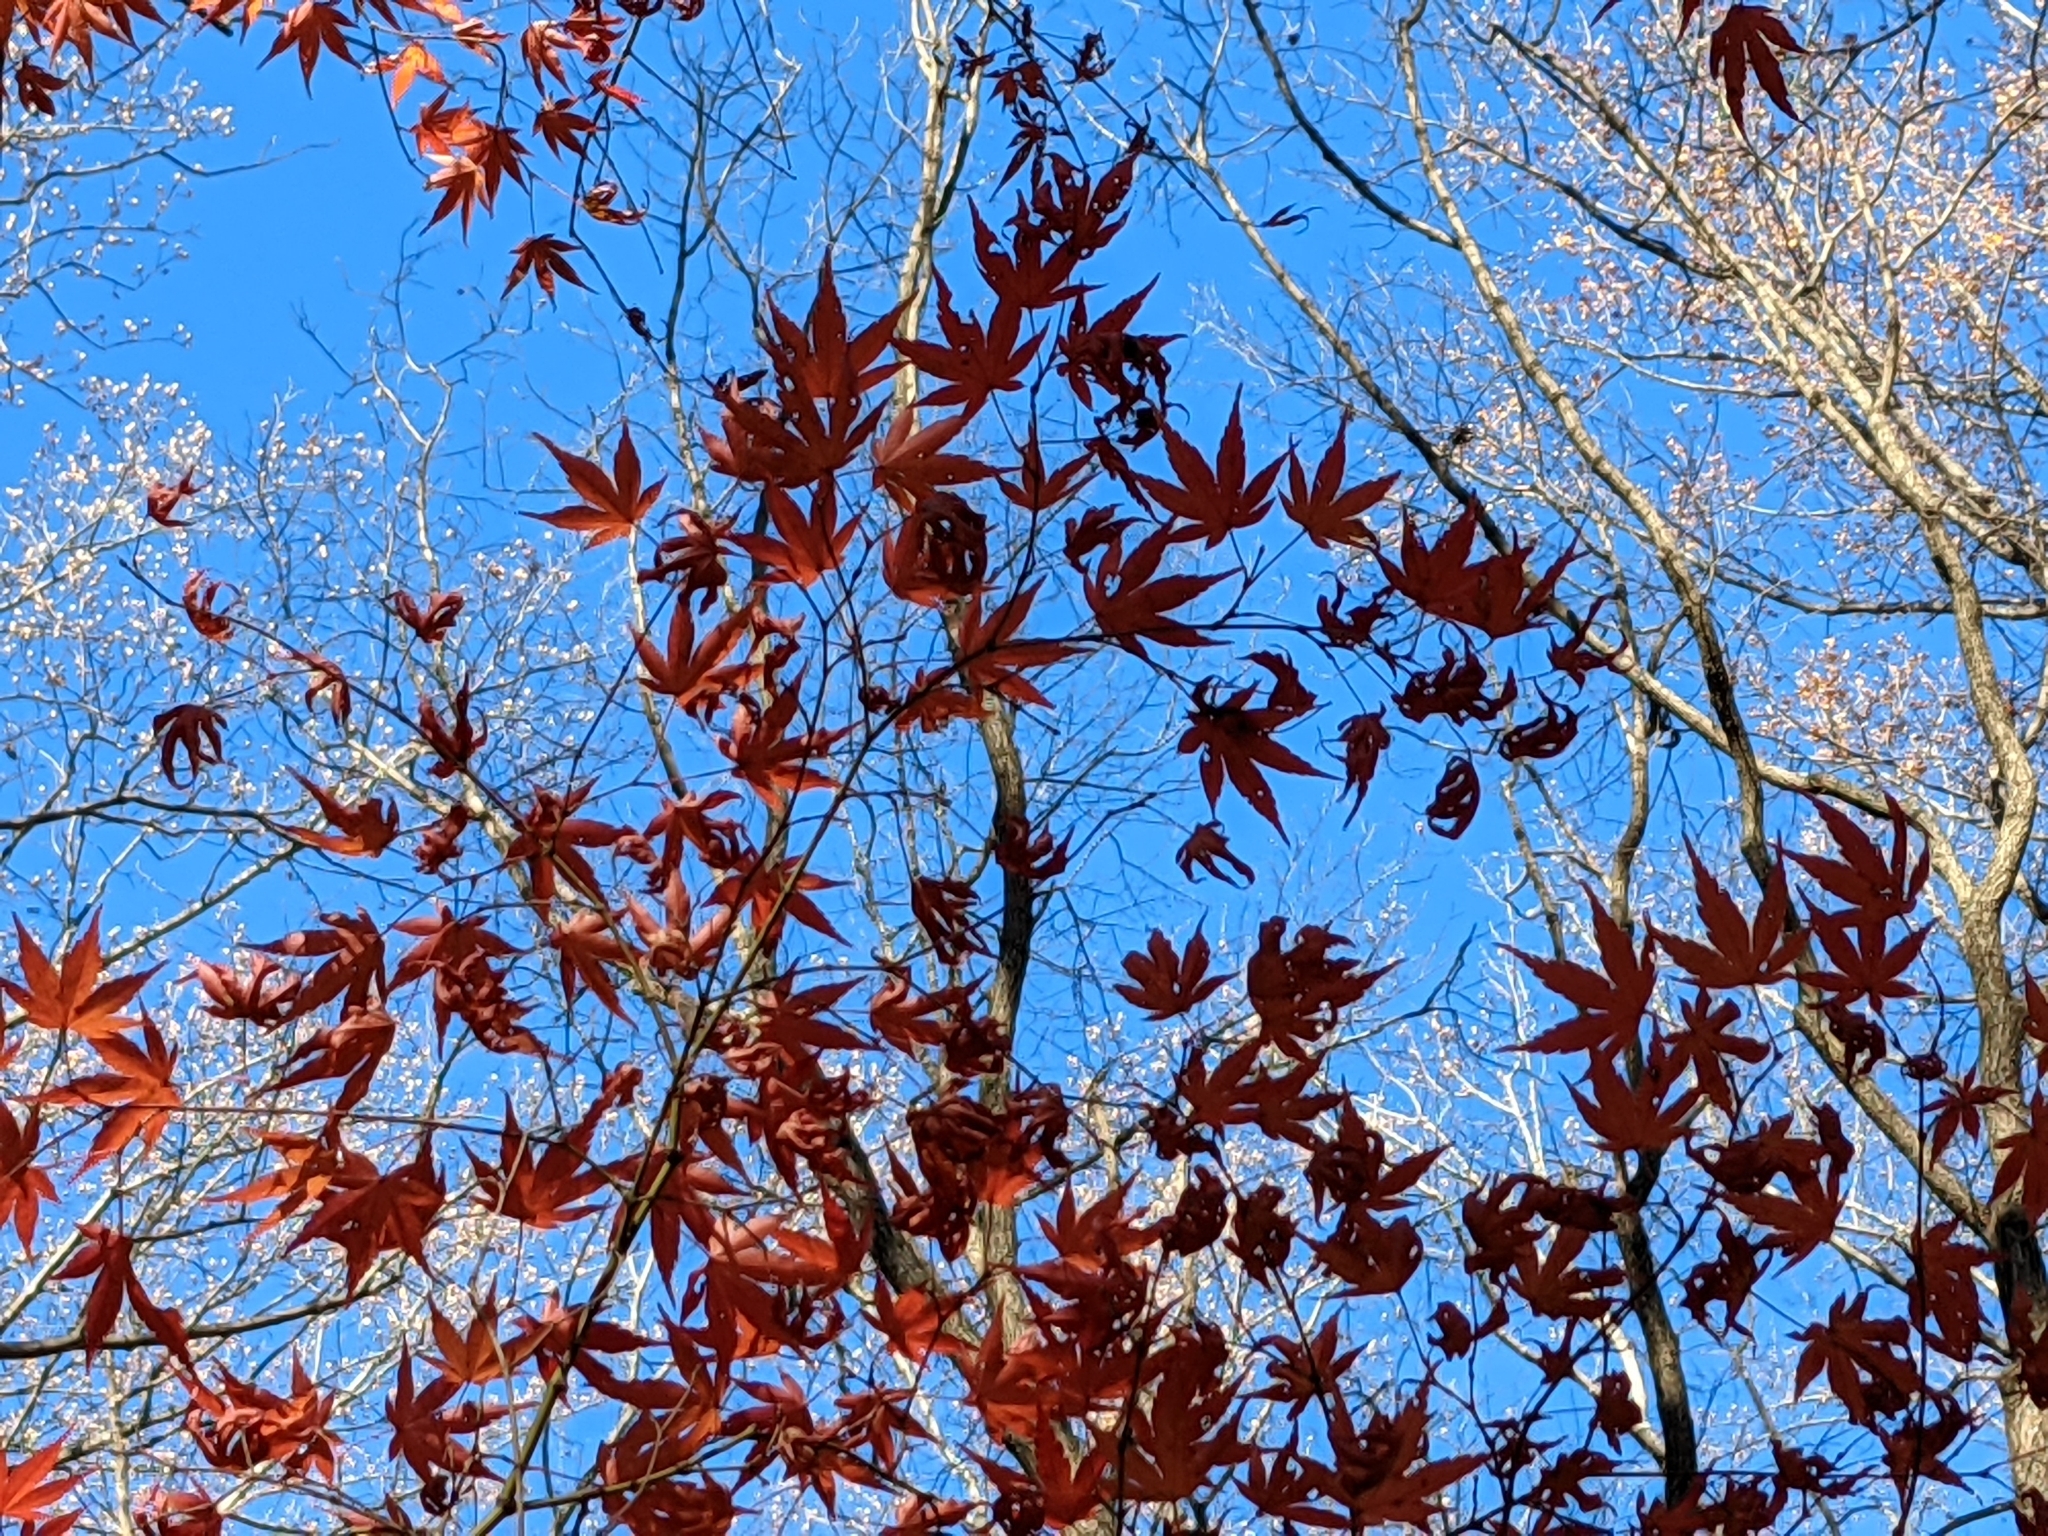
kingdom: Plantae
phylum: Tracheophyta
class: Magnoliopsida
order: Sapindales
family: Sapindaceae
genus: Acer
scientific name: Acer palmatum
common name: Japanese maple
